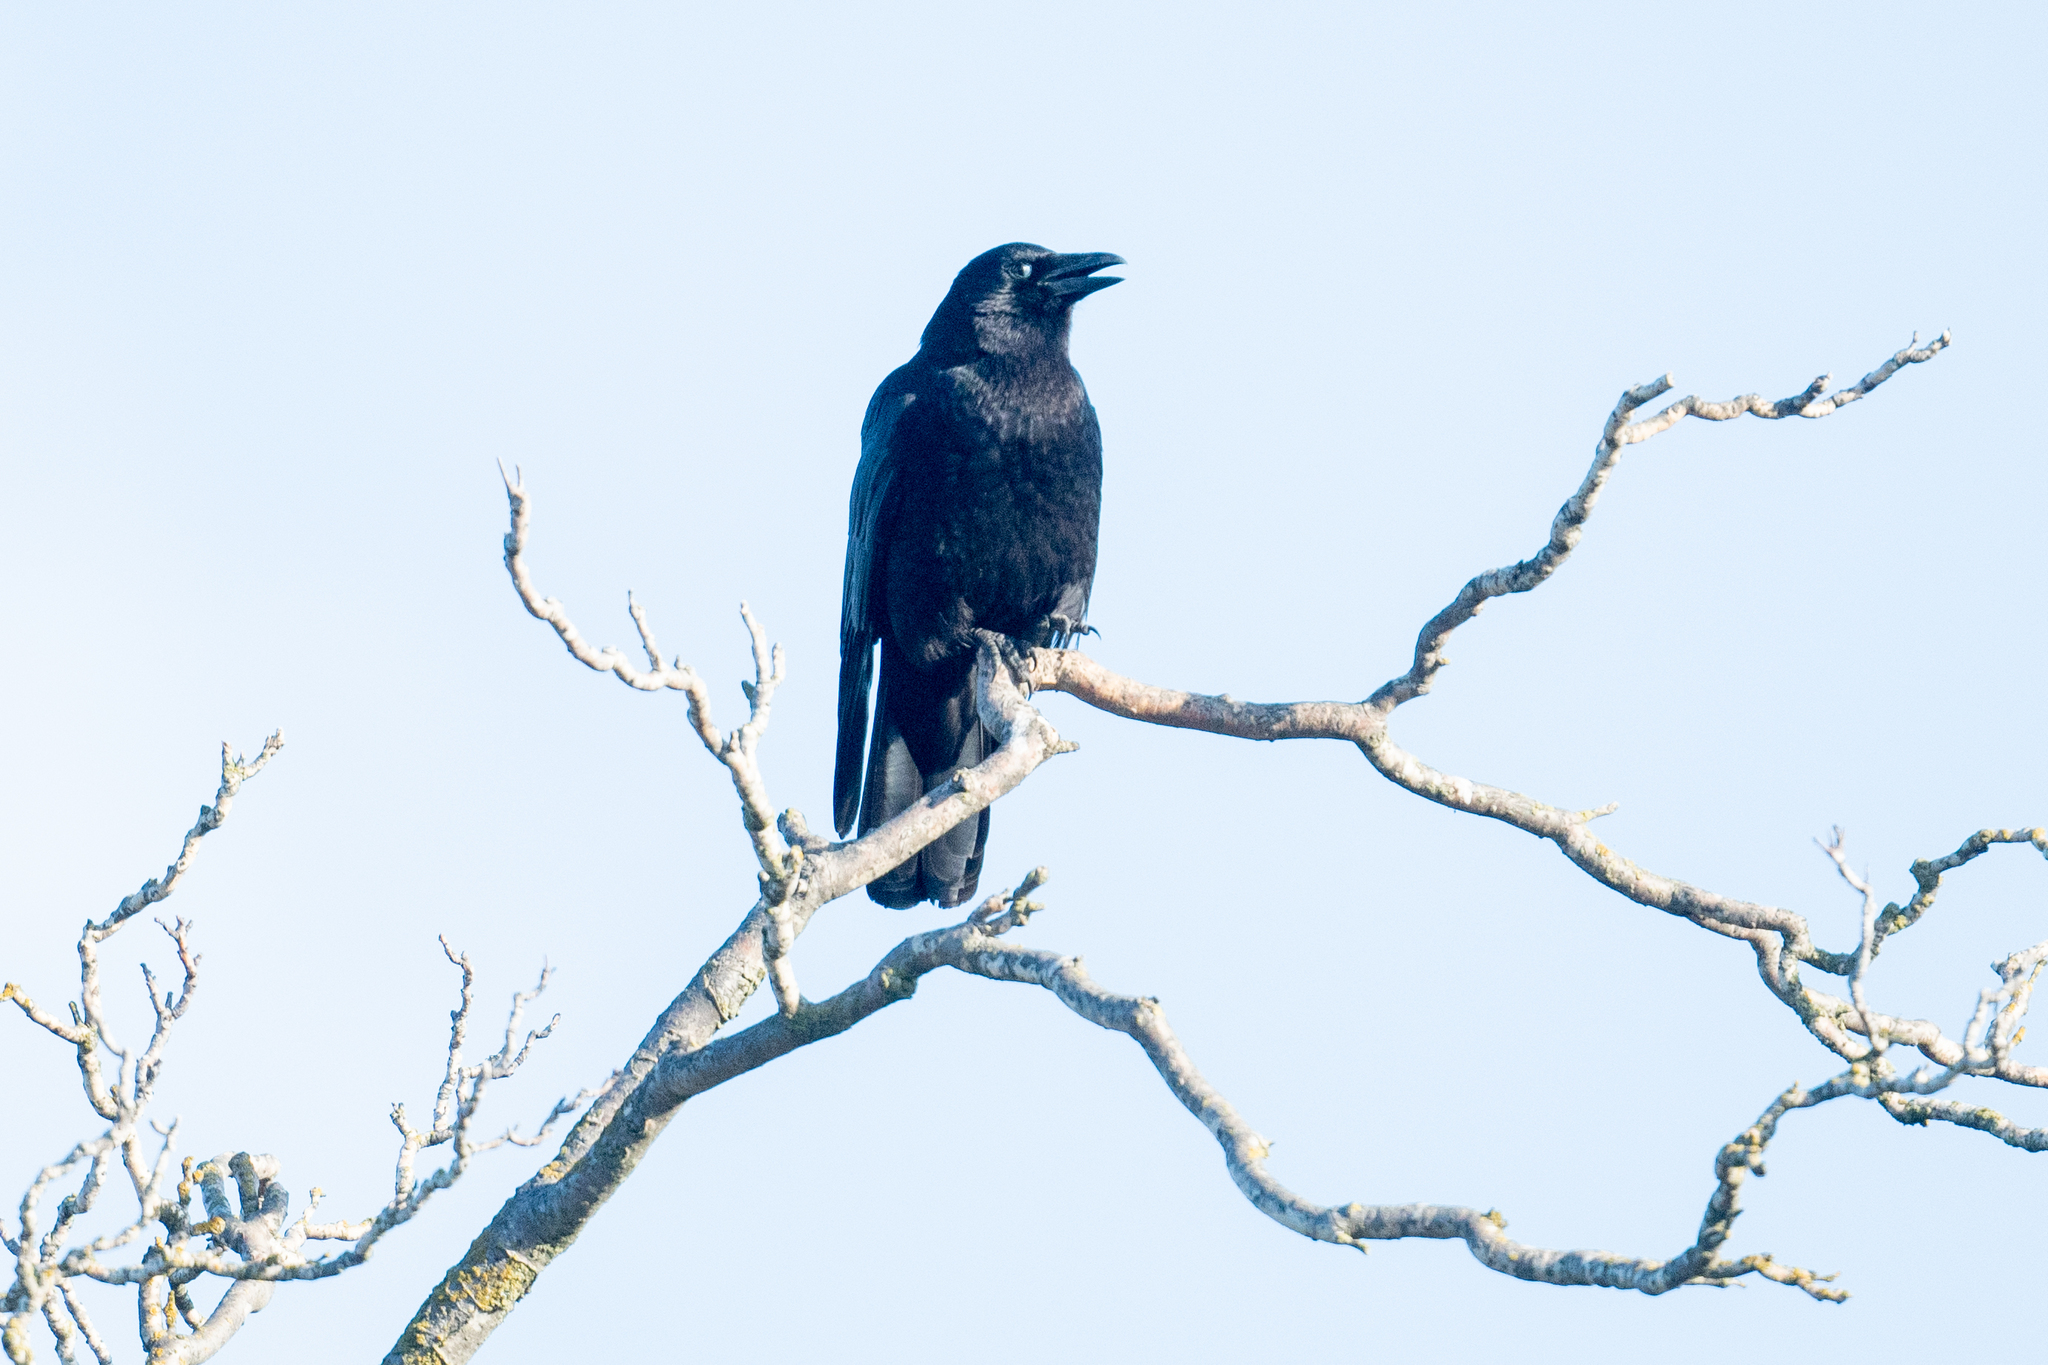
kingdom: Animalia
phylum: Chordata
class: Aves
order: Passeriformes
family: Corvidae
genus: Corvus
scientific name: Corvus brachyrhynchos
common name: American crow
